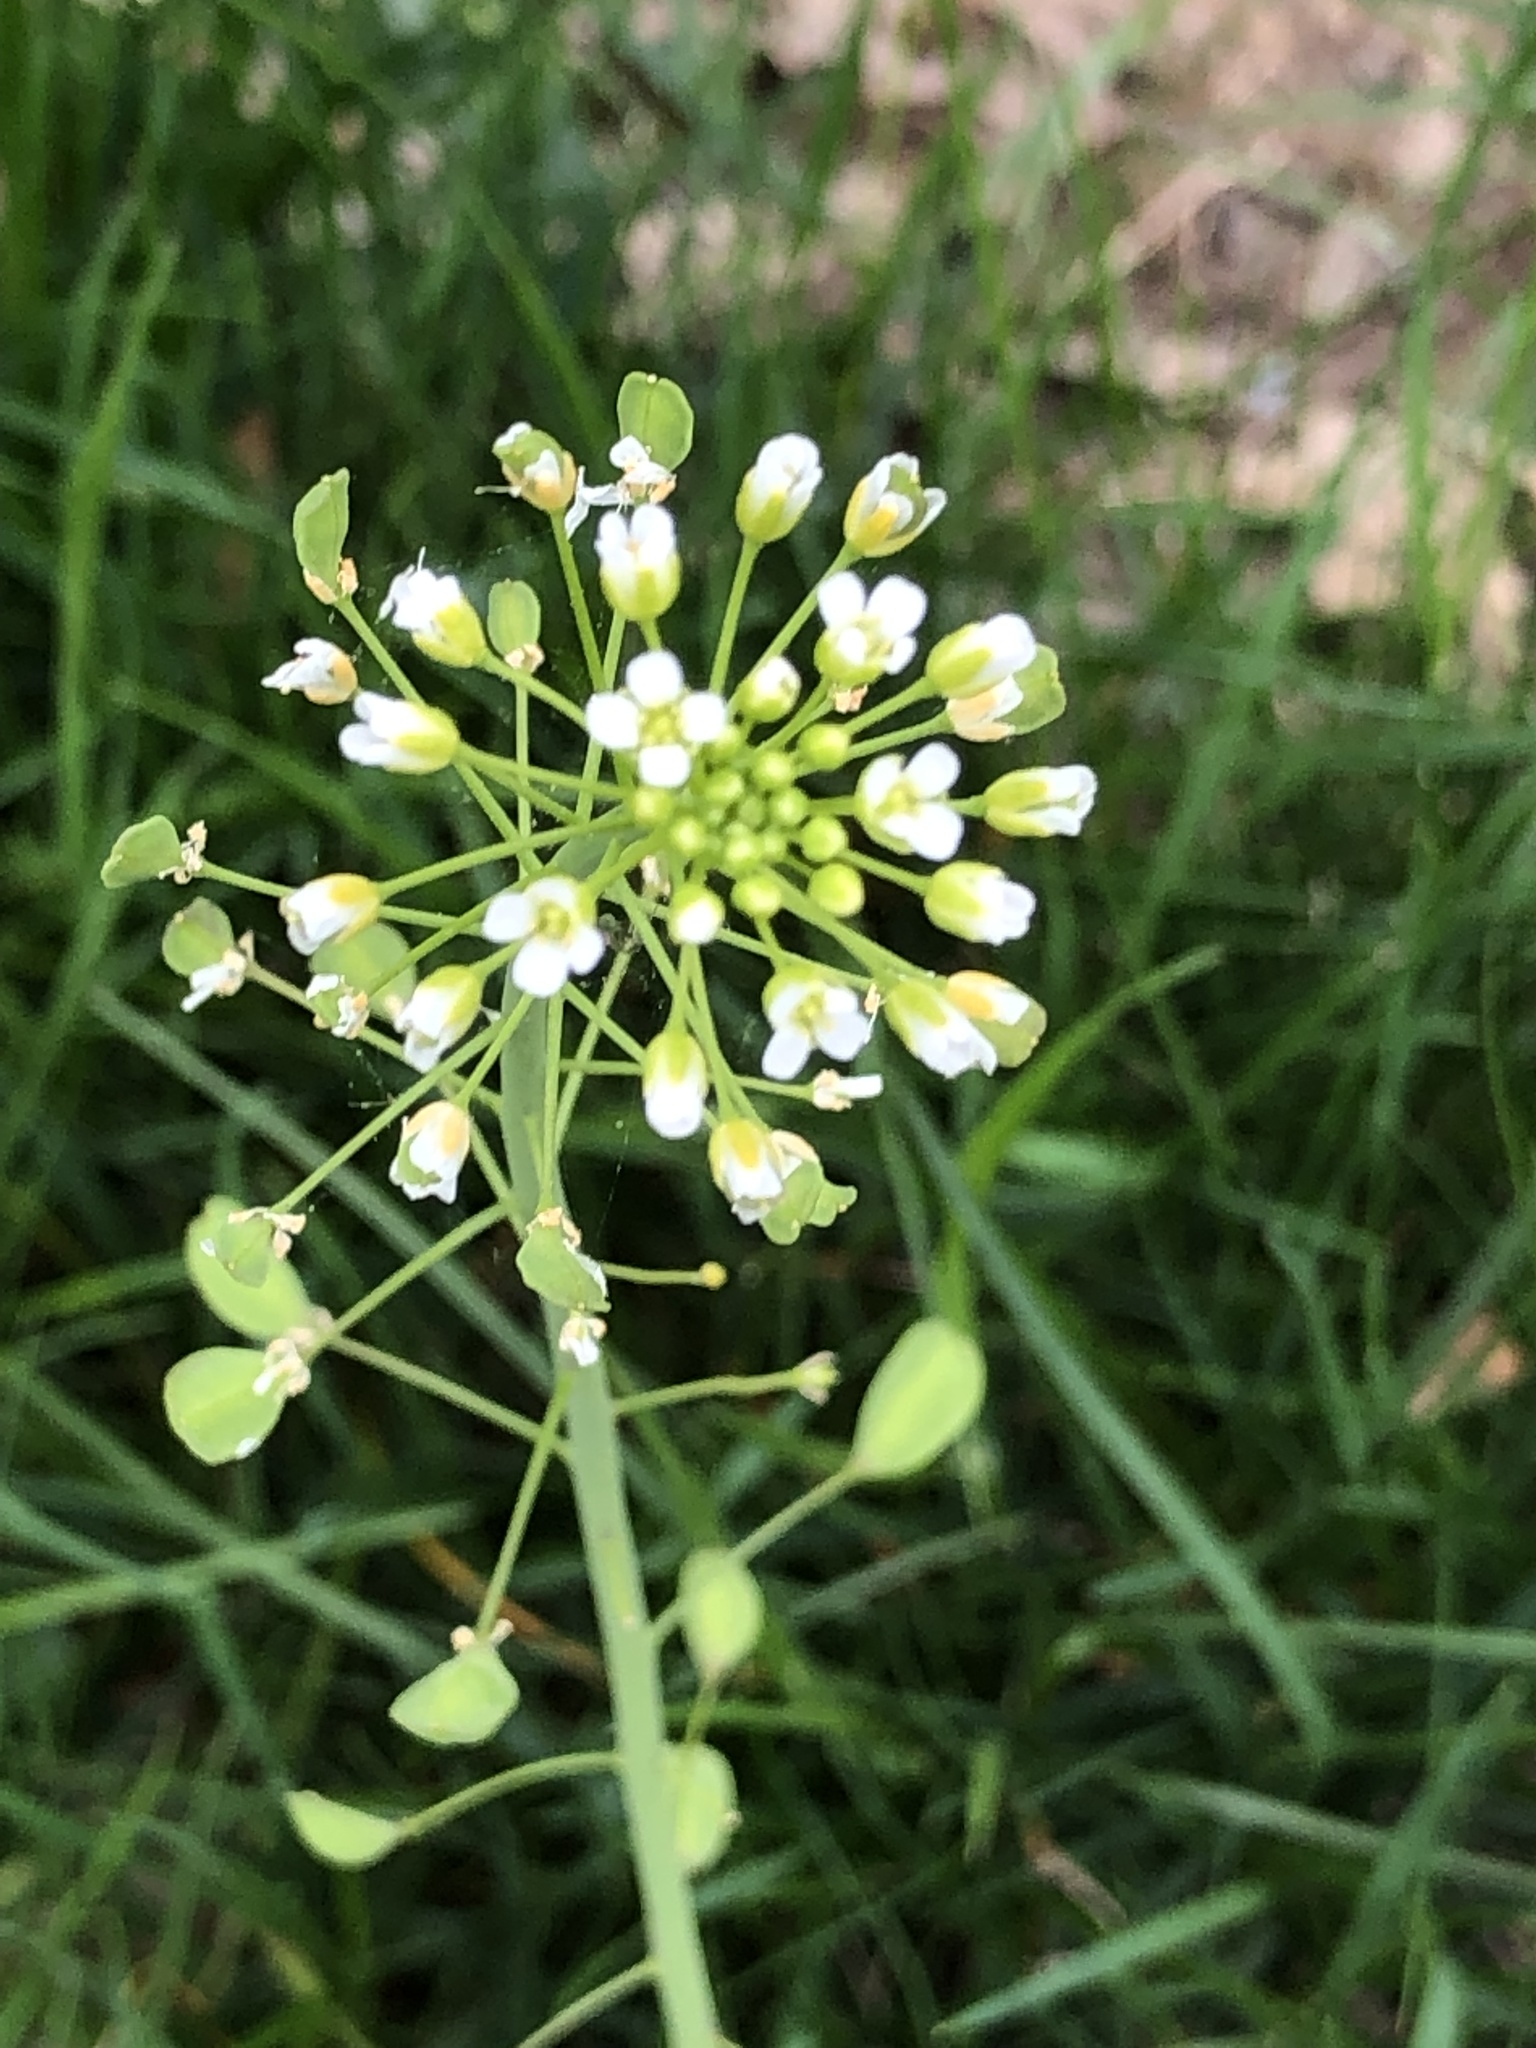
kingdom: Plantae
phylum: Tracheophyta
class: Magnoliopsida
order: Brassicales
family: Brassicaceae
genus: Mummenhoffia
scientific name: Mummenhoffia alliacea
